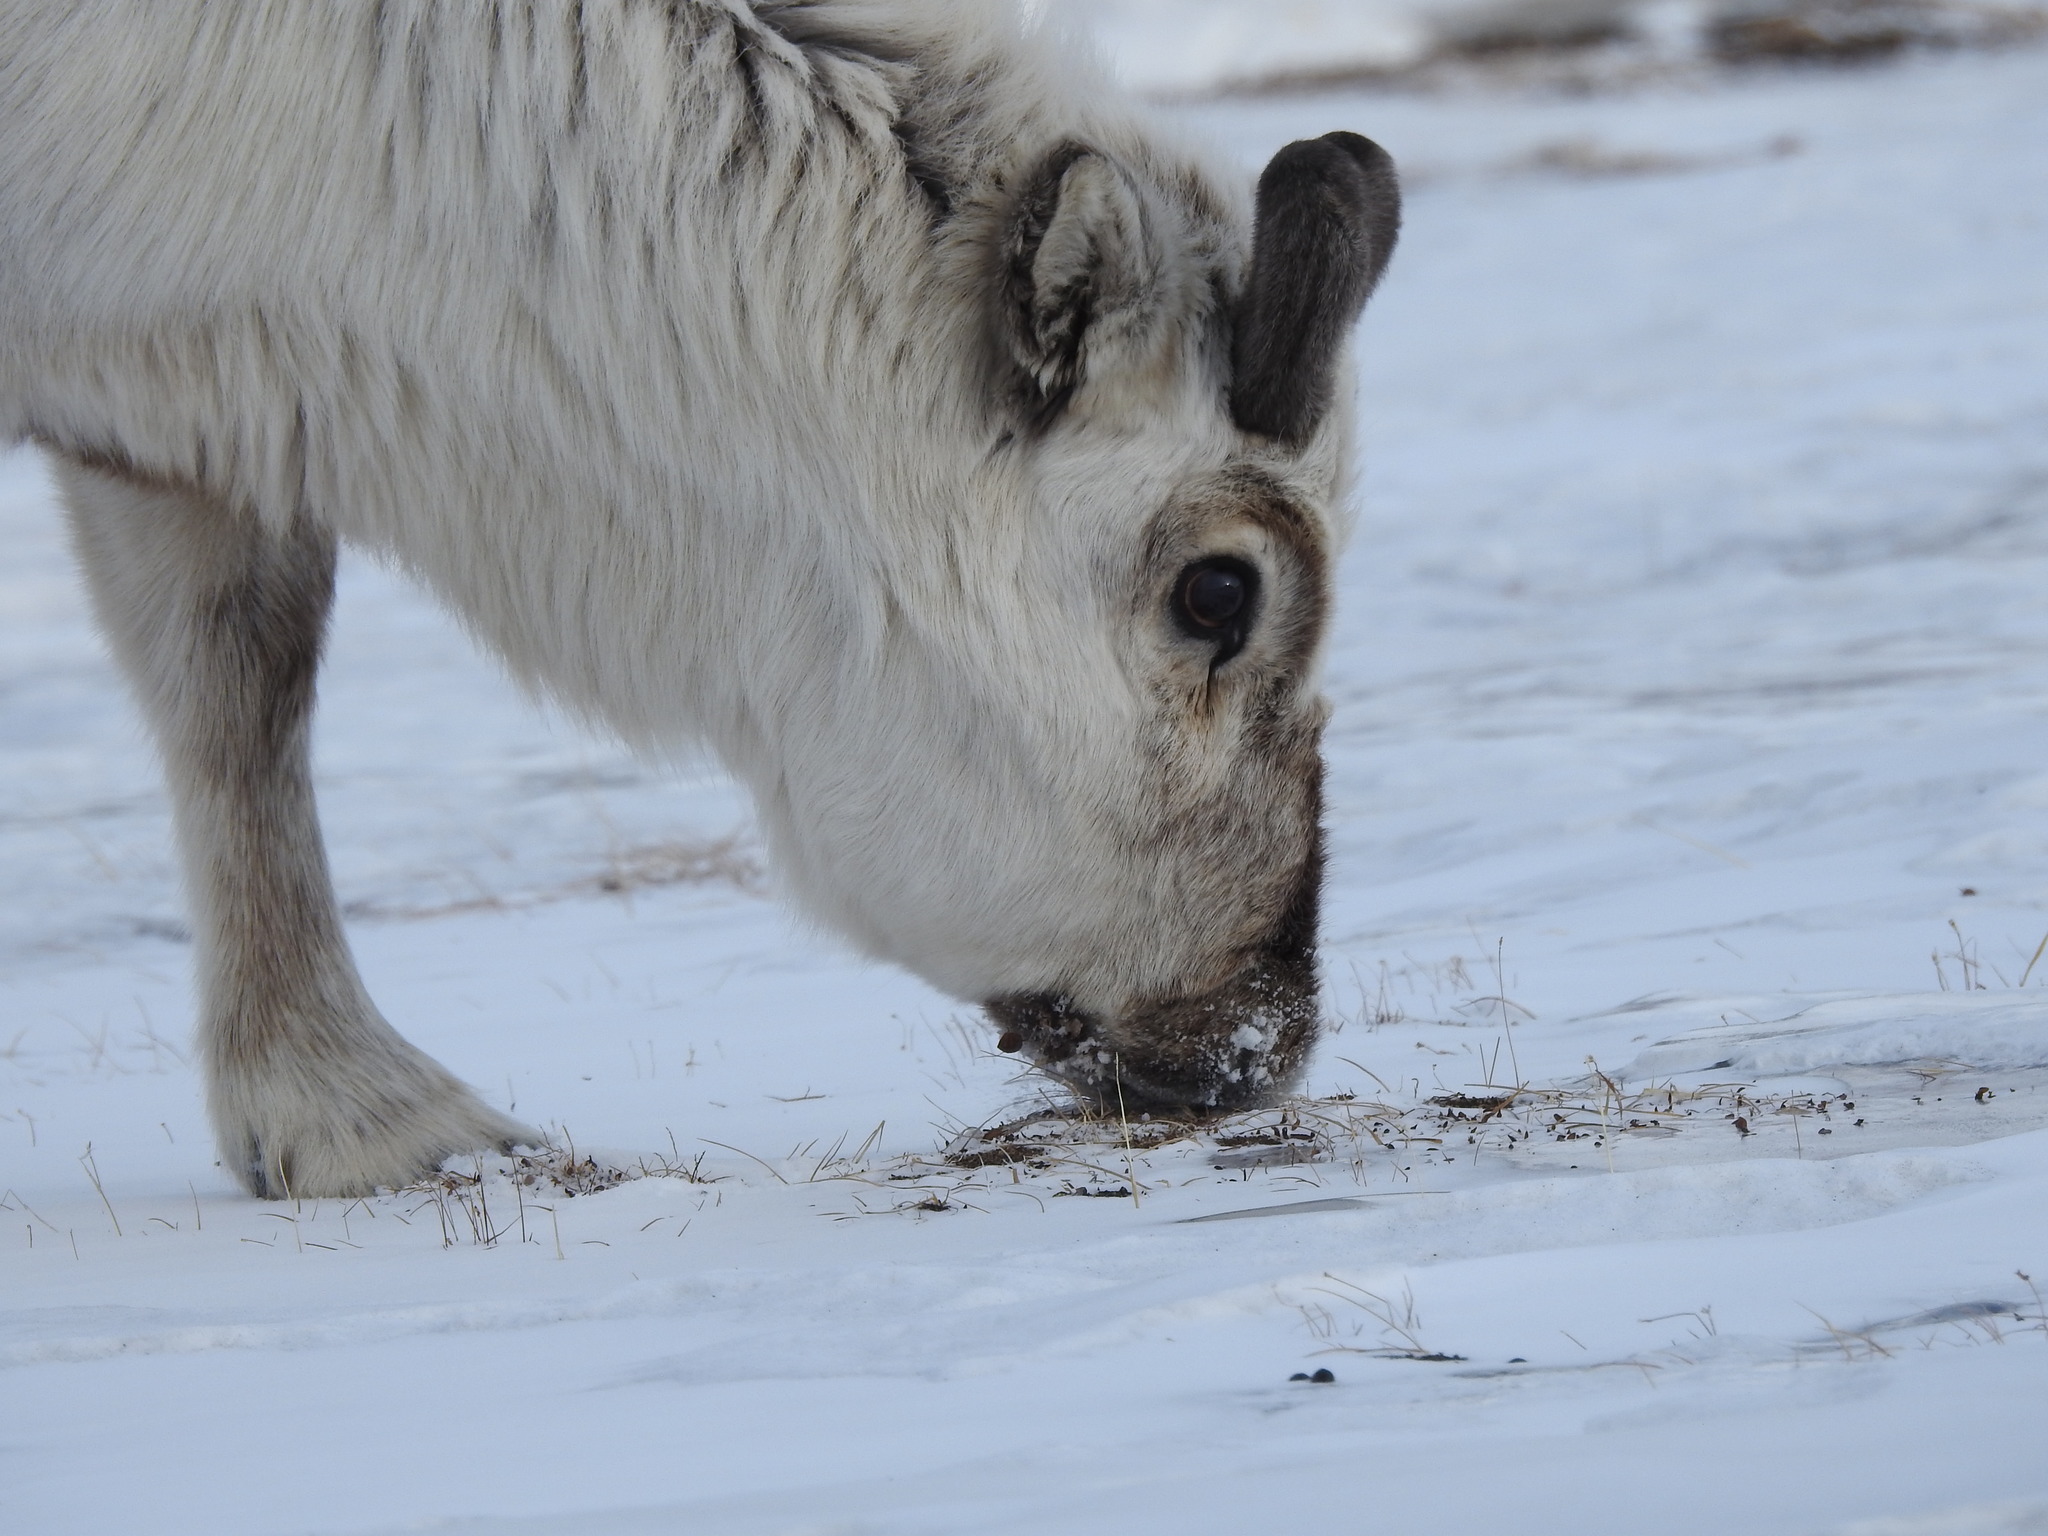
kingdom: Animalia
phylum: Chordata
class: Mammalia
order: Artiodactyla
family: Cervidae
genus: Rangifer
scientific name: Rangifer tarandus
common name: Reindeer
